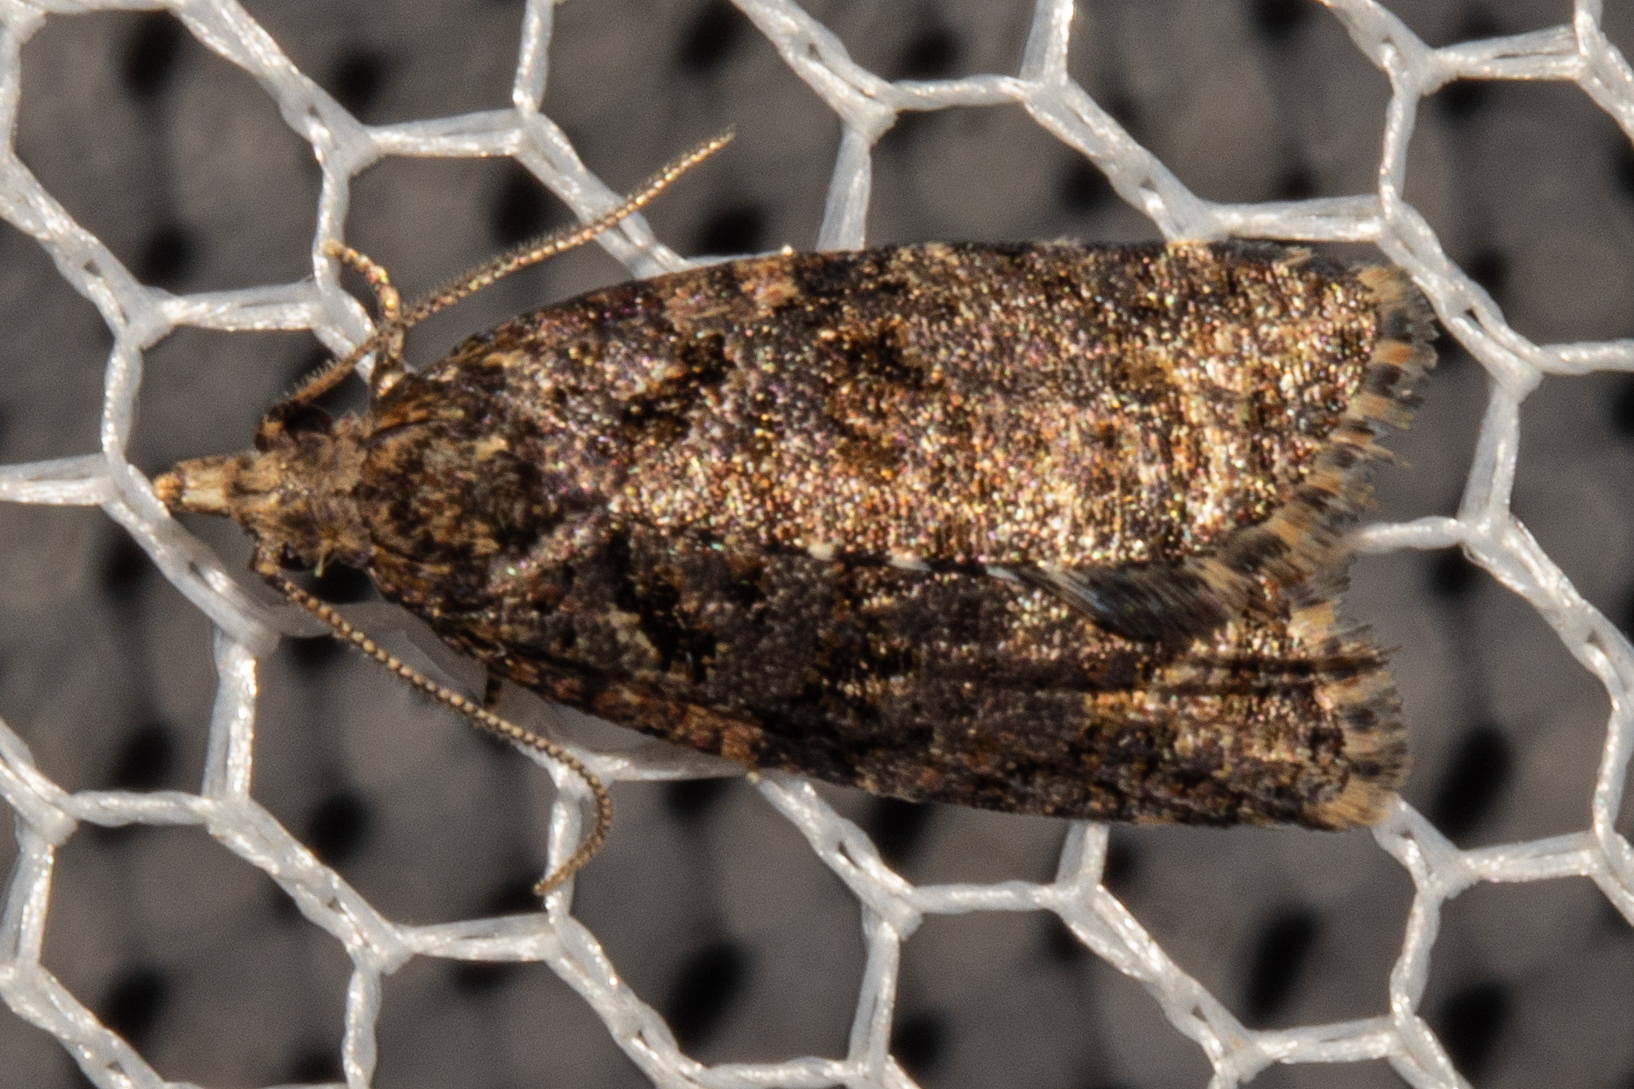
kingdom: Animalia
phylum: Arthropoda
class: Insecta
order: Lepidoptera
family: Tortricidae
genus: Capua
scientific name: Capua intractana
